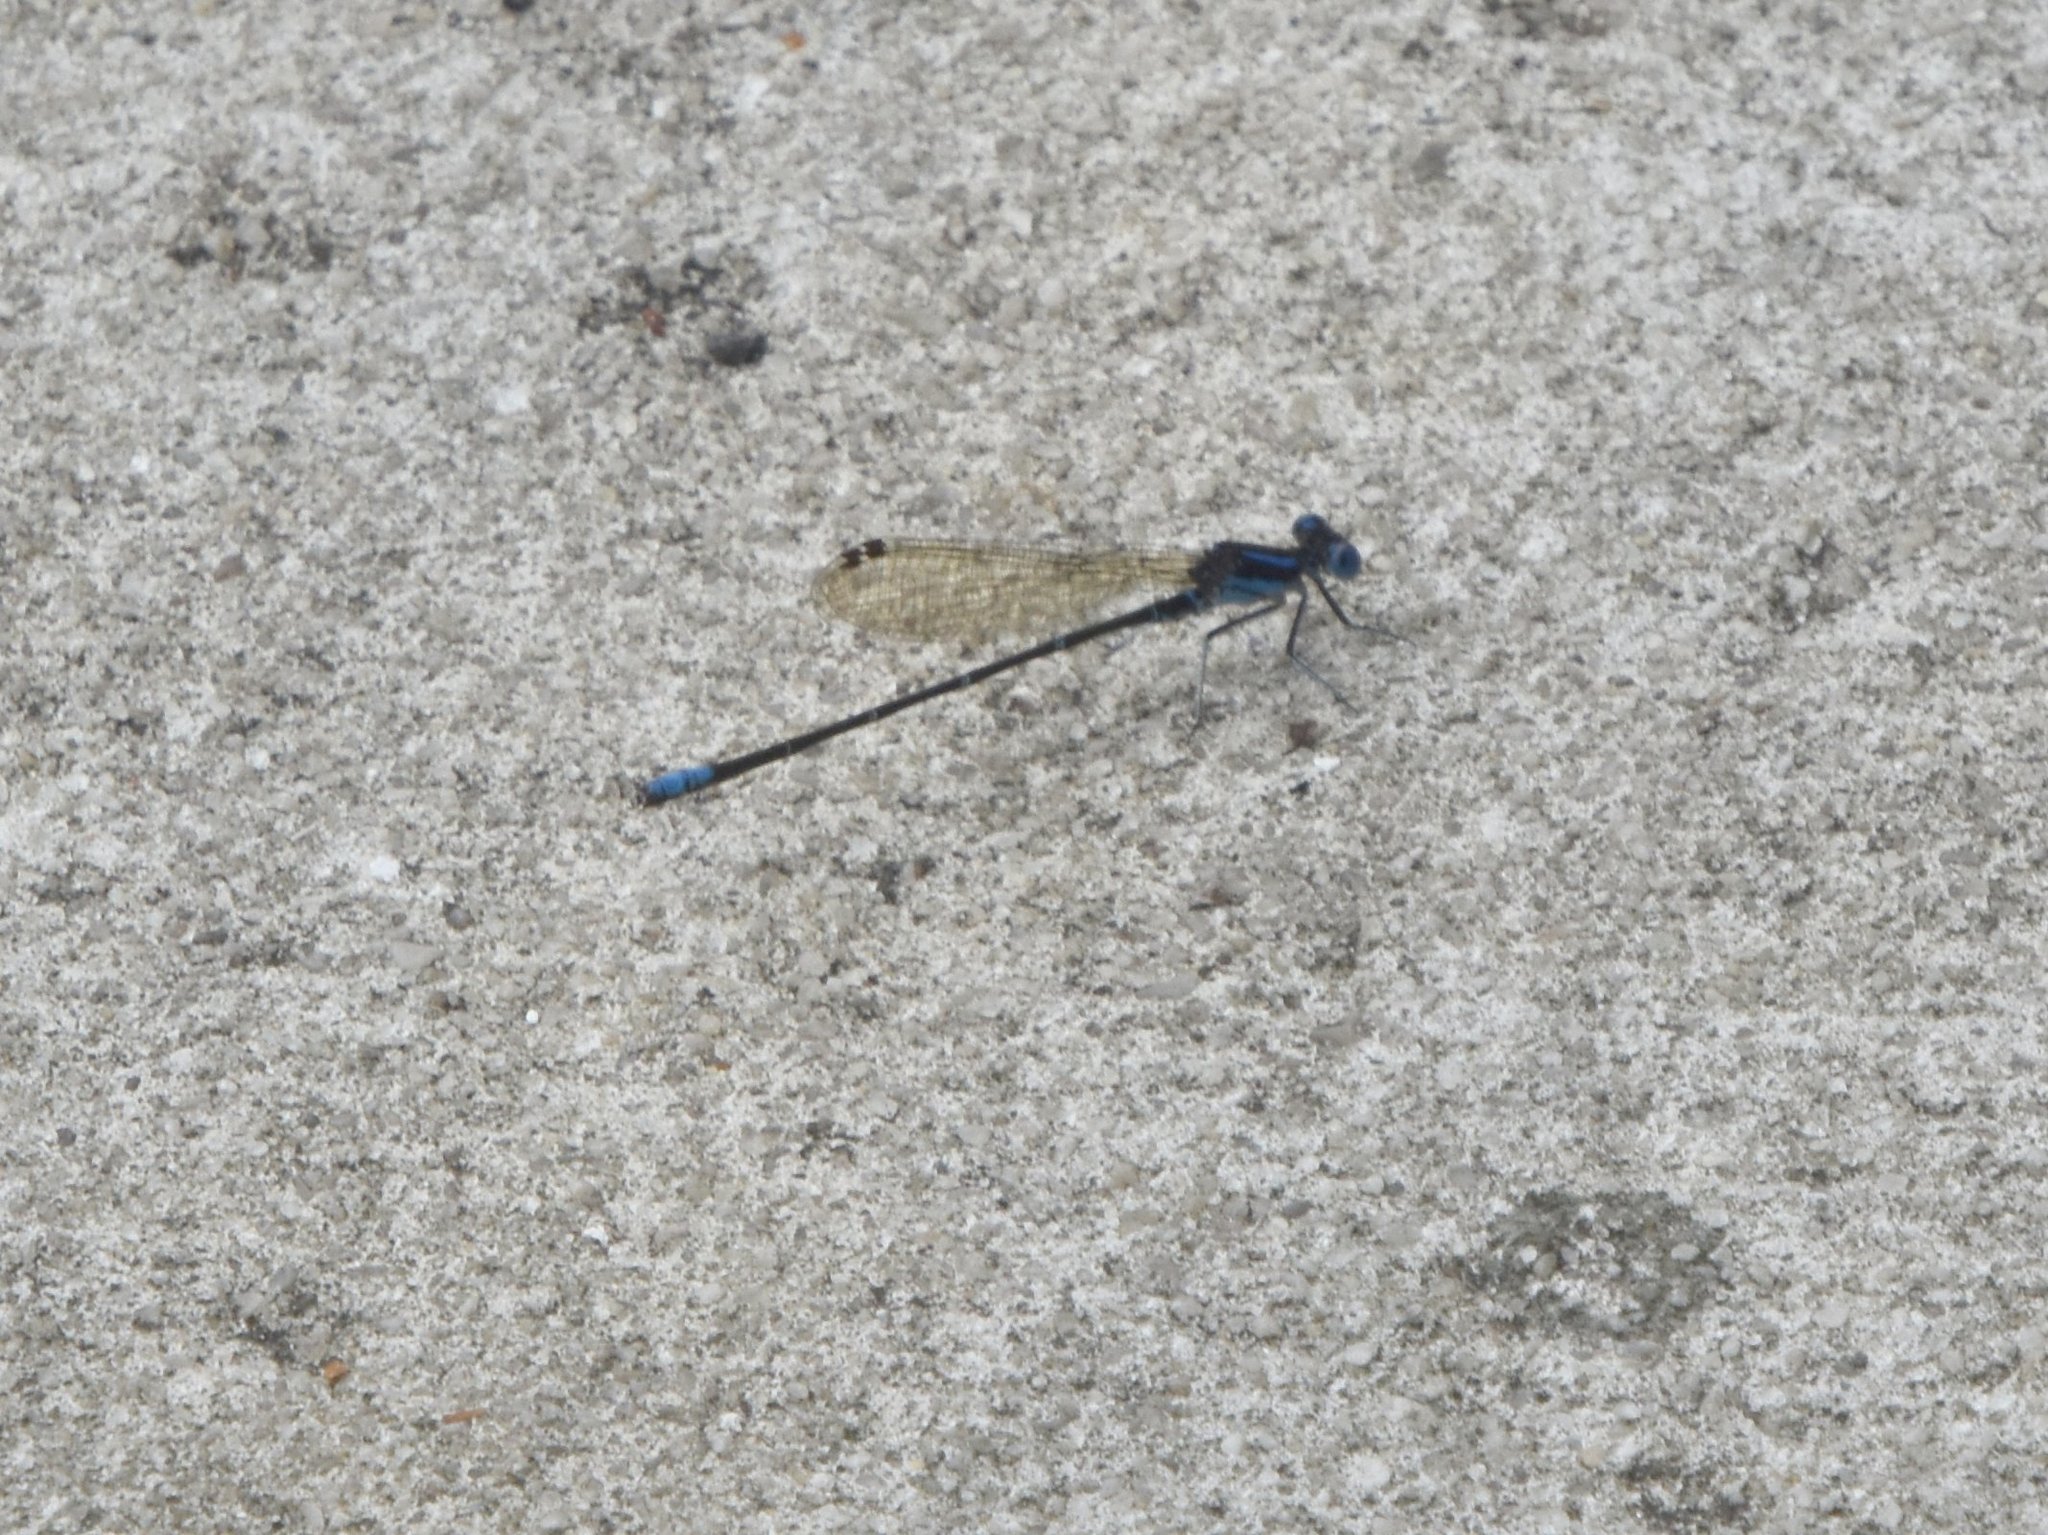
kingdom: Animalia
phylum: Arthropoda
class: Insecta
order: Odonata
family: Coenagrionidae
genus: Argia
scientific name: Argia sedula
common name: Blue-ringed dancer
